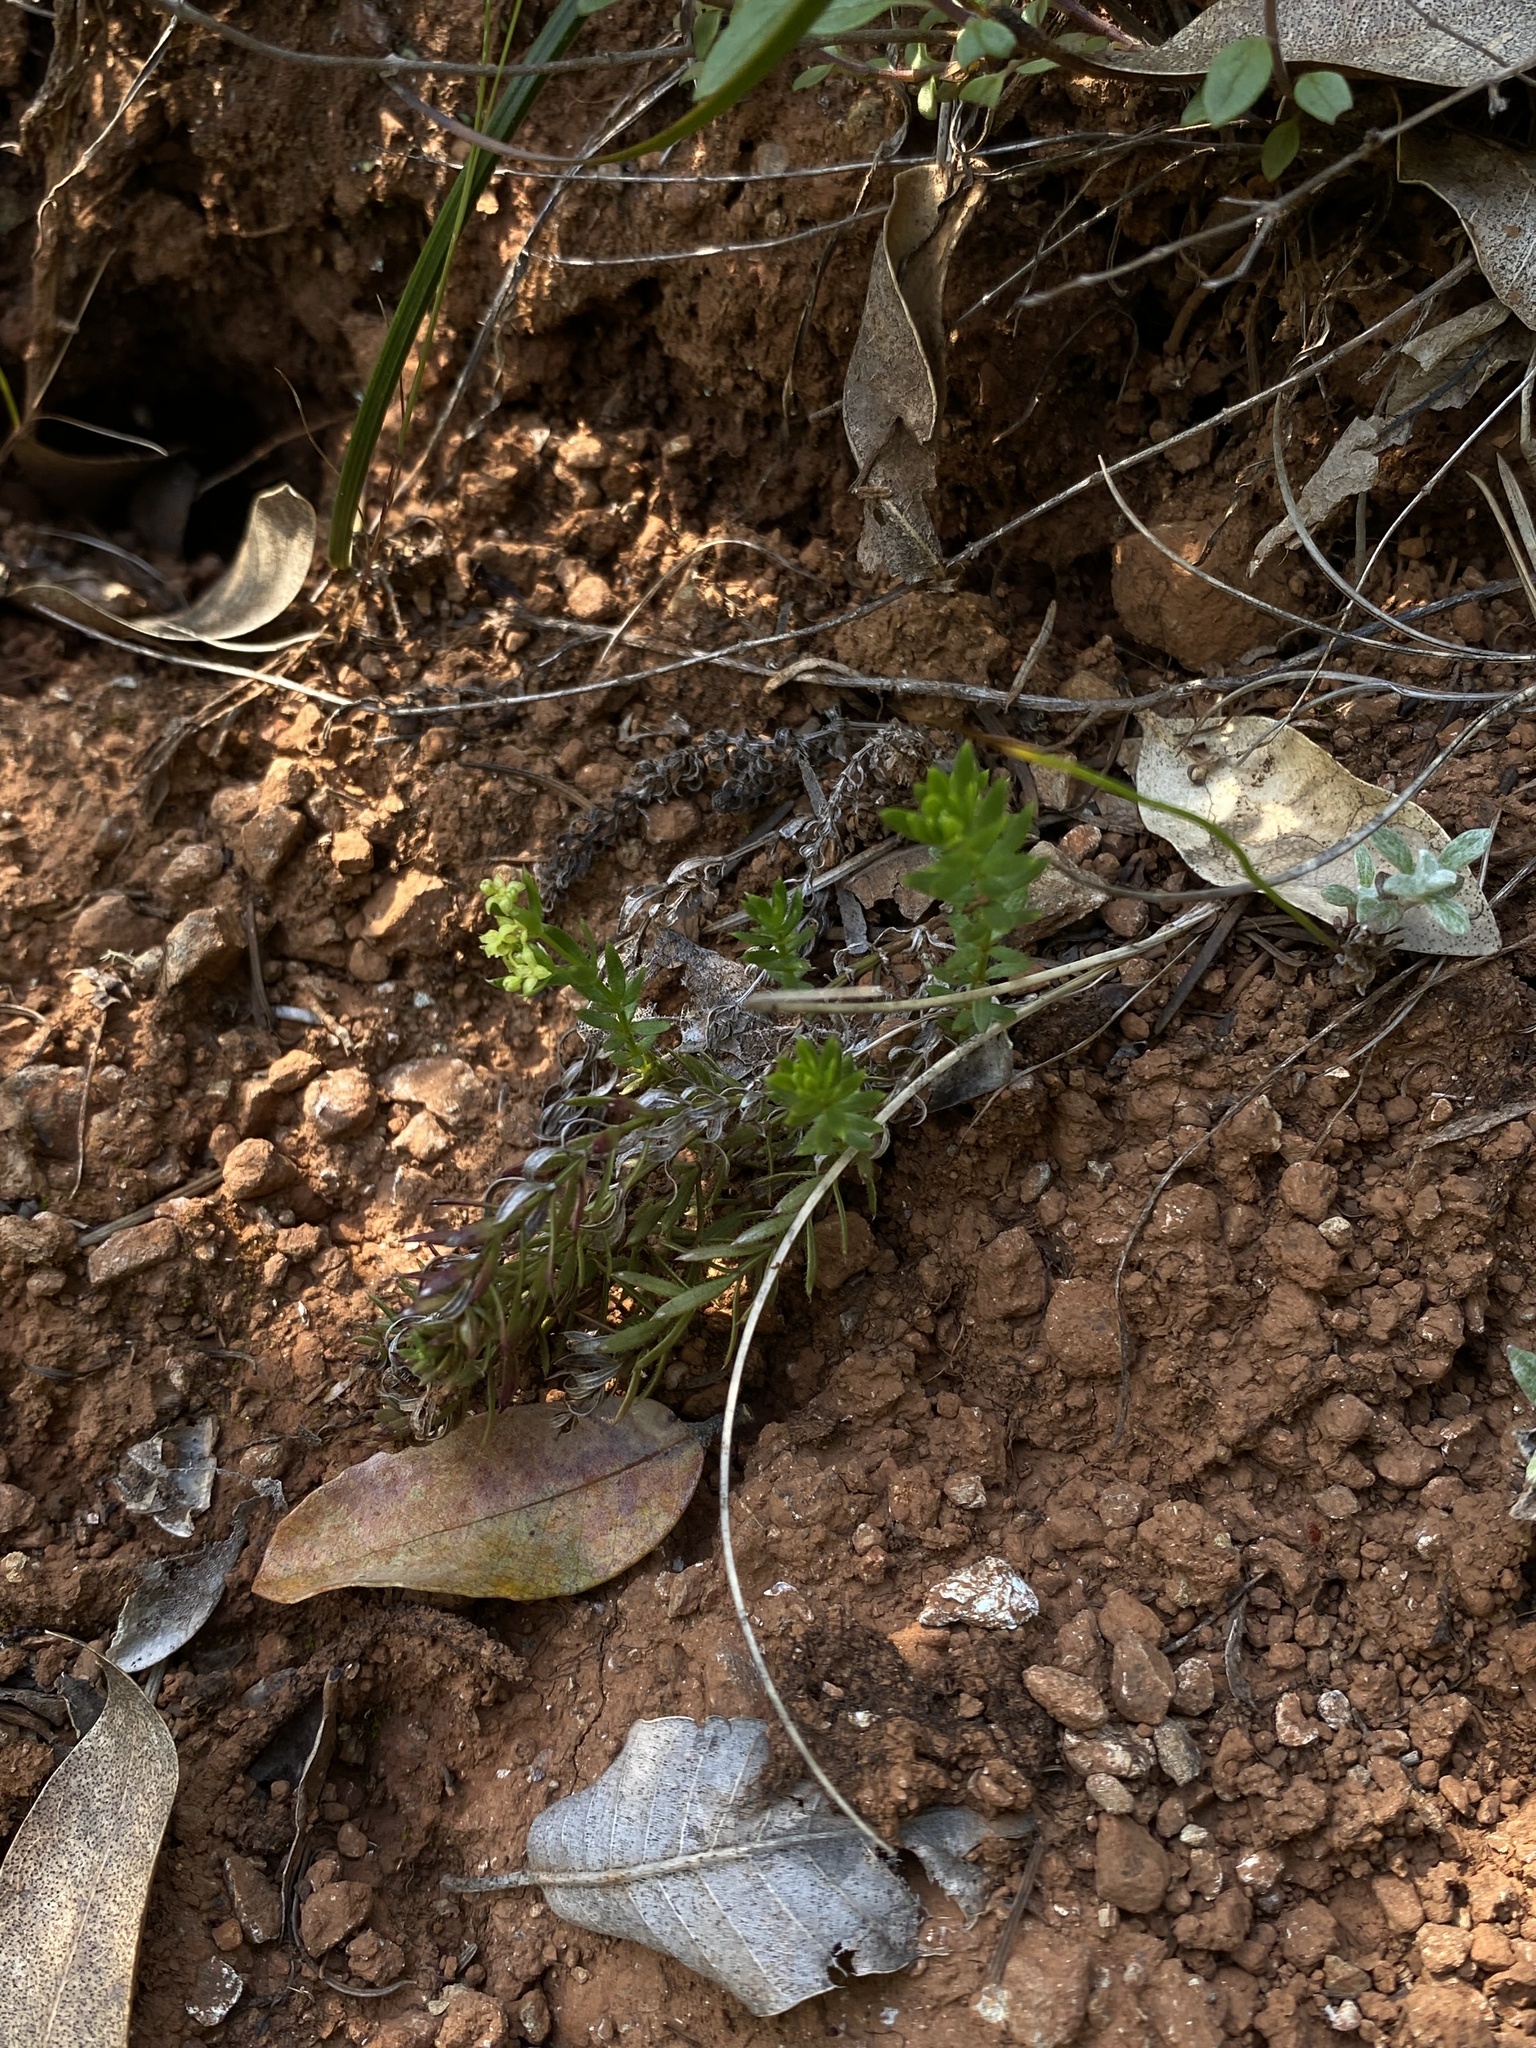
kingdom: Plantae
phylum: Tracheophyta
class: Magnoliopsida
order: Gentianales
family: Rubiaceae
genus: Galium
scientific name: Galium stebbinsii
